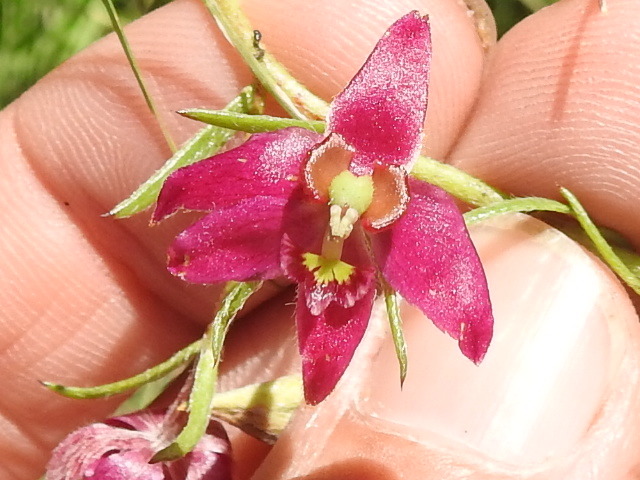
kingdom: Plantae
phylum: Tracheophyta
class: Magnoliopsida
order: Zygophyllales
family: Krameriaceae
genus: Krameria
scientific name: Krameria lanceolata
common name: Ratany
